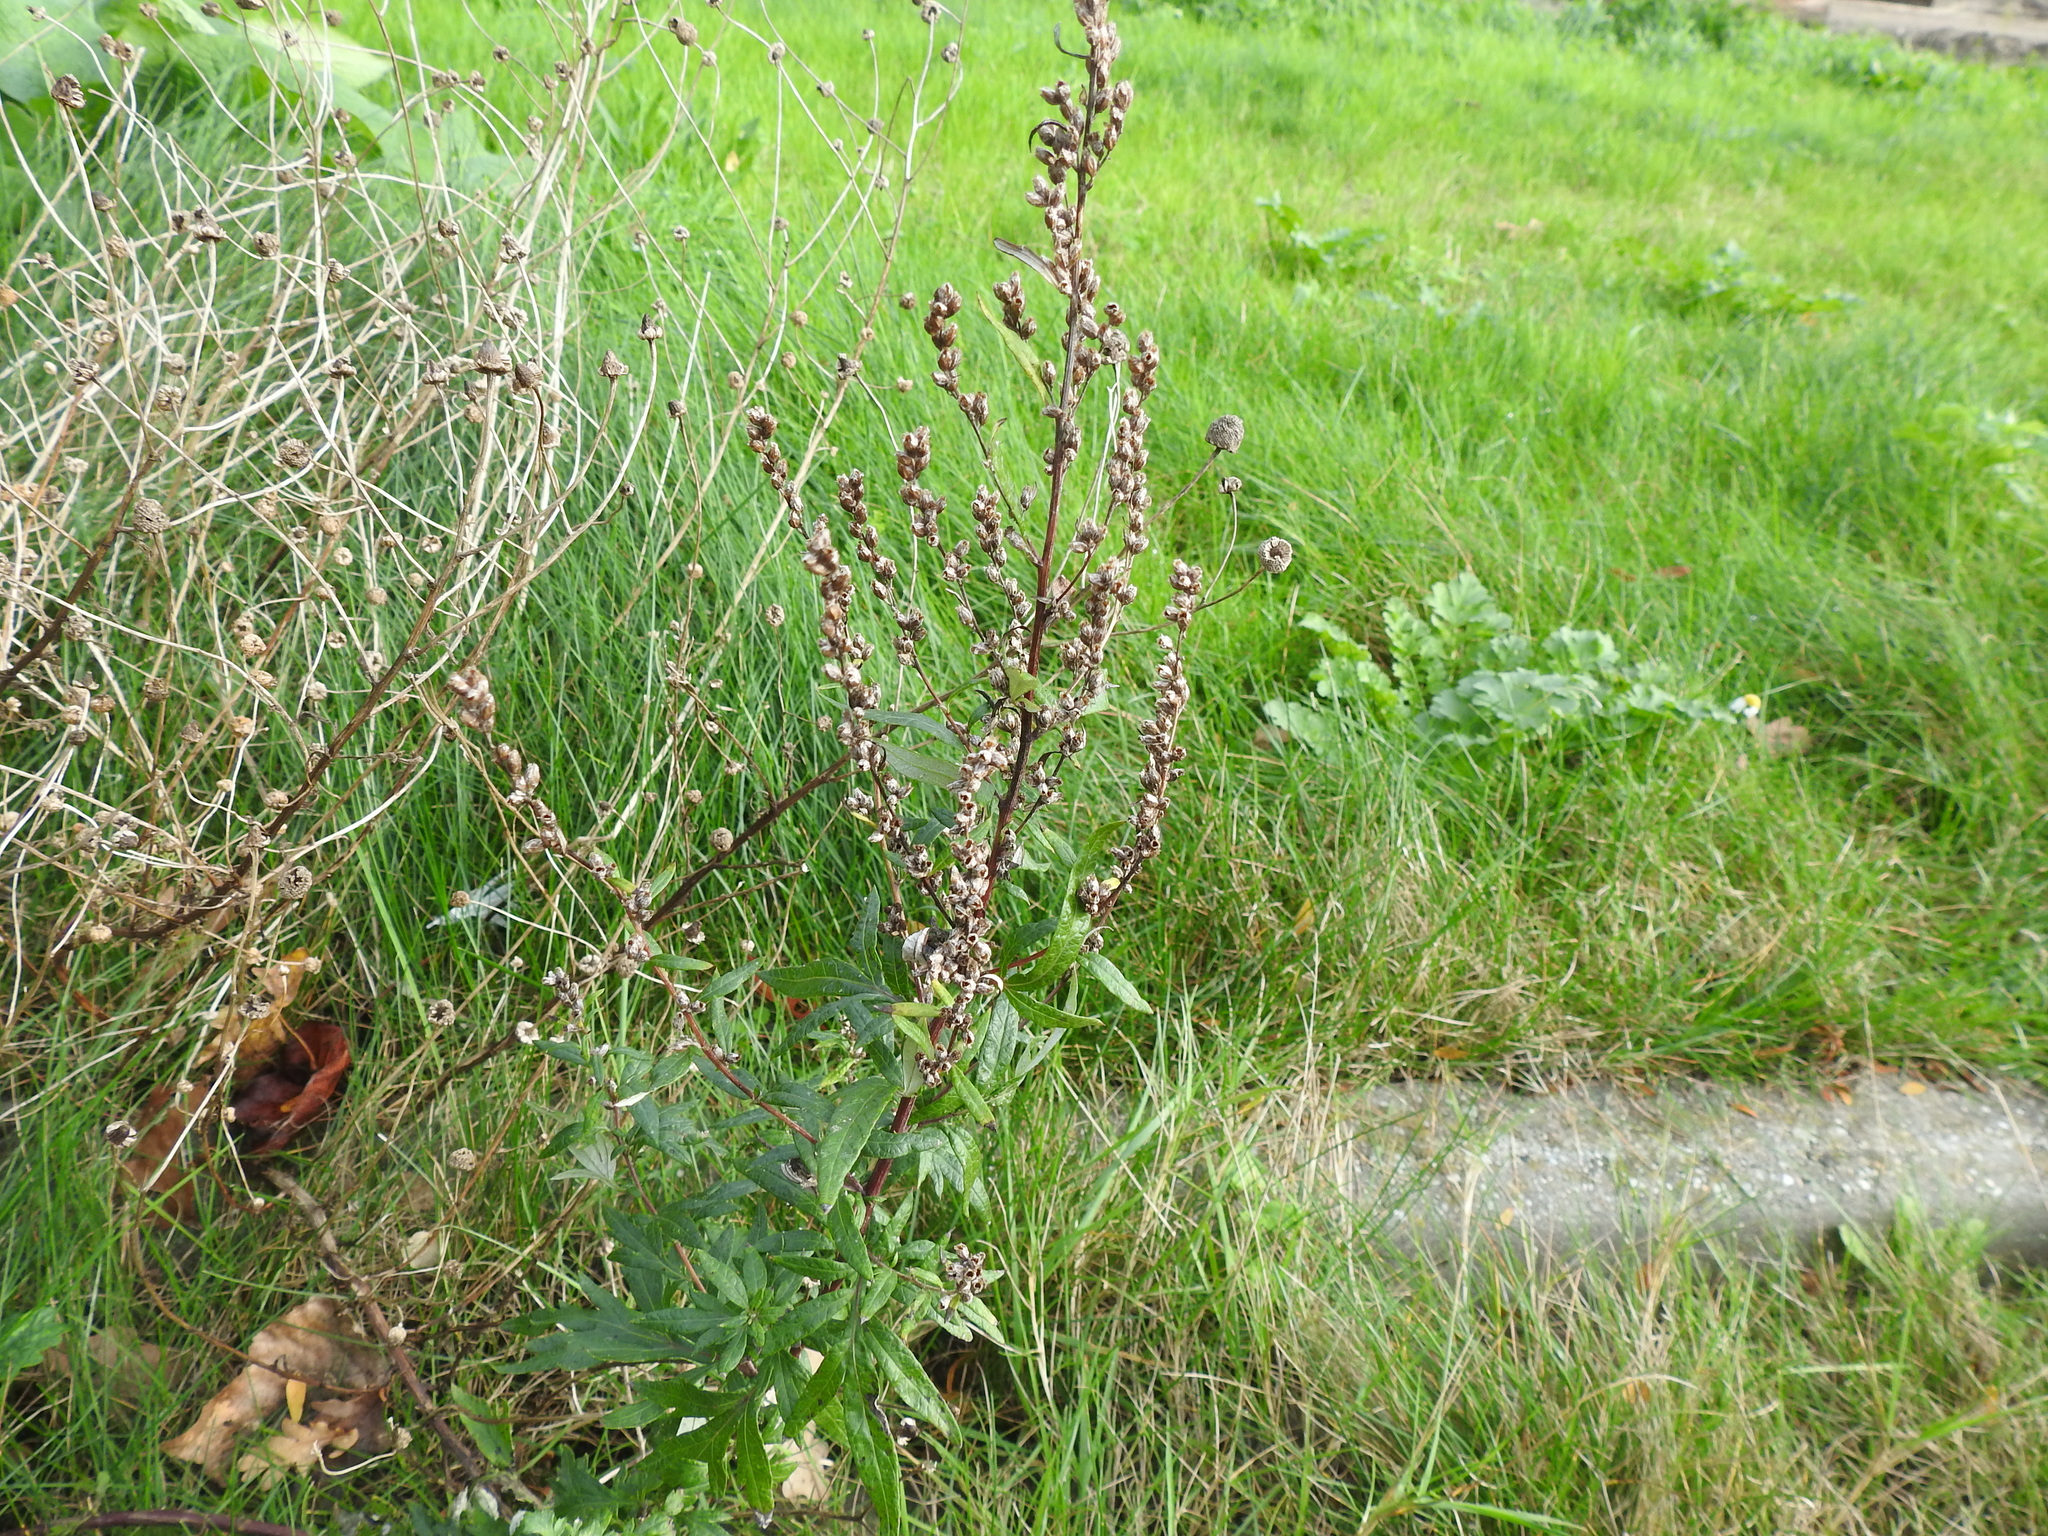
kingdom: Plantae
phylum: Tracheophyta
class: Magnoliopsida
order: Asterales
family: Asteraceae
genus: Artemisia
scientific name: Artemisia vulgaris
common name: Mugwort
